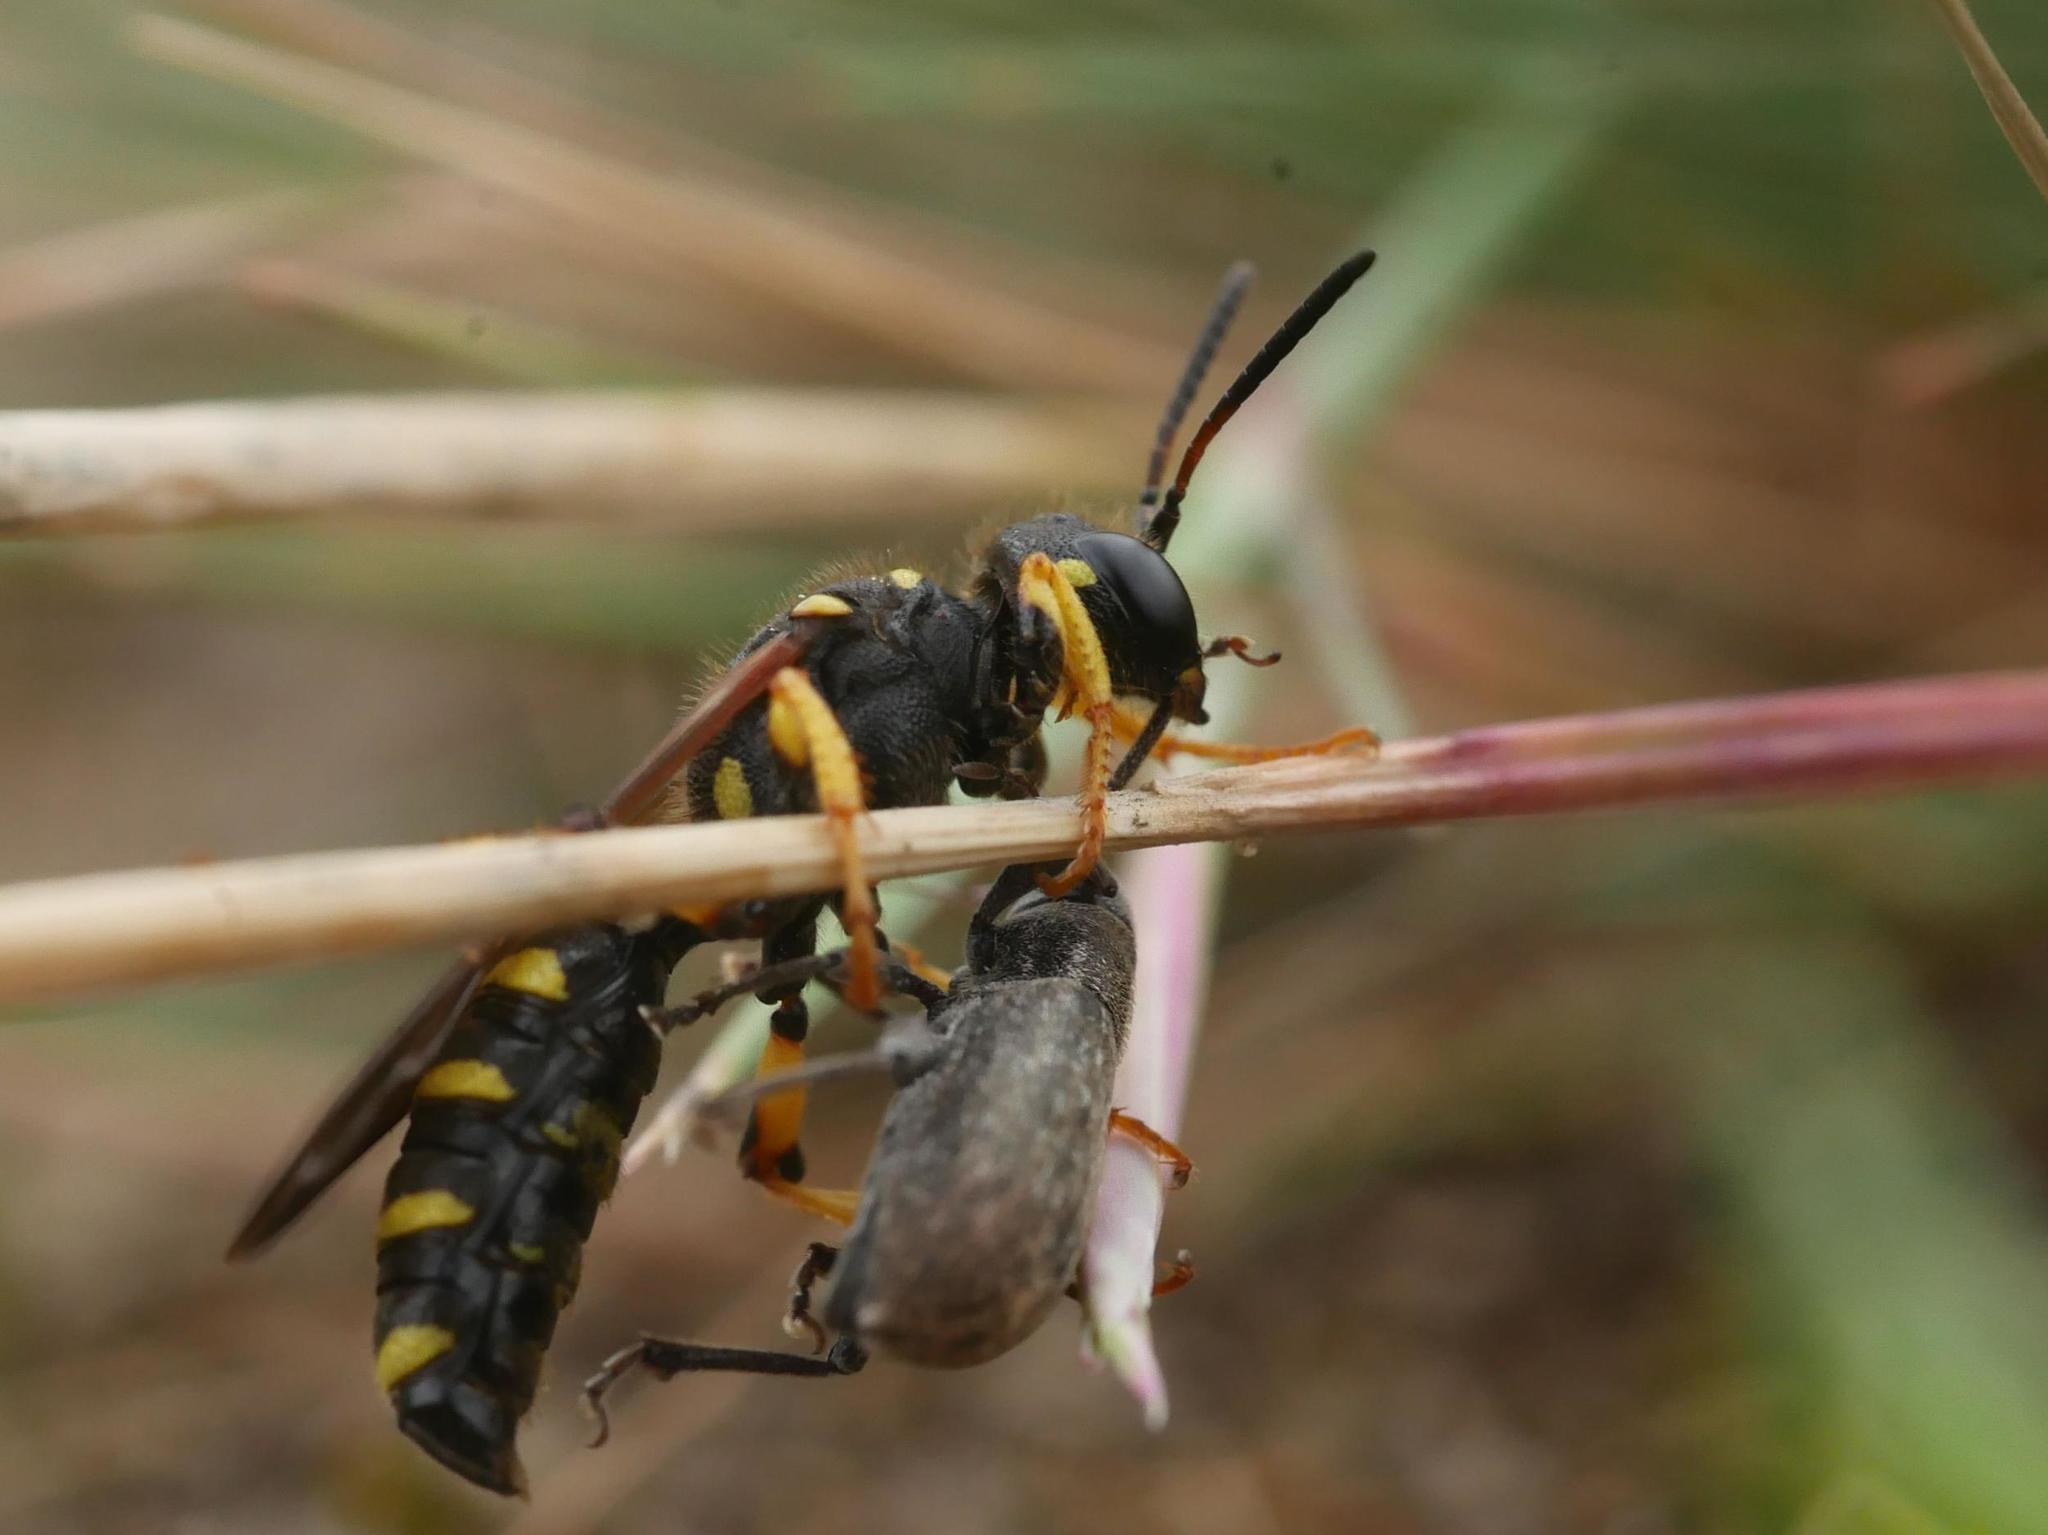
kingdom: Animalia
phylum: Arthropoda
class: Insecta
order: Coleoptera
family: Curculionidae
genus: Brachyderes
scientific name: Brachyderes incanus
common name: Weevil
